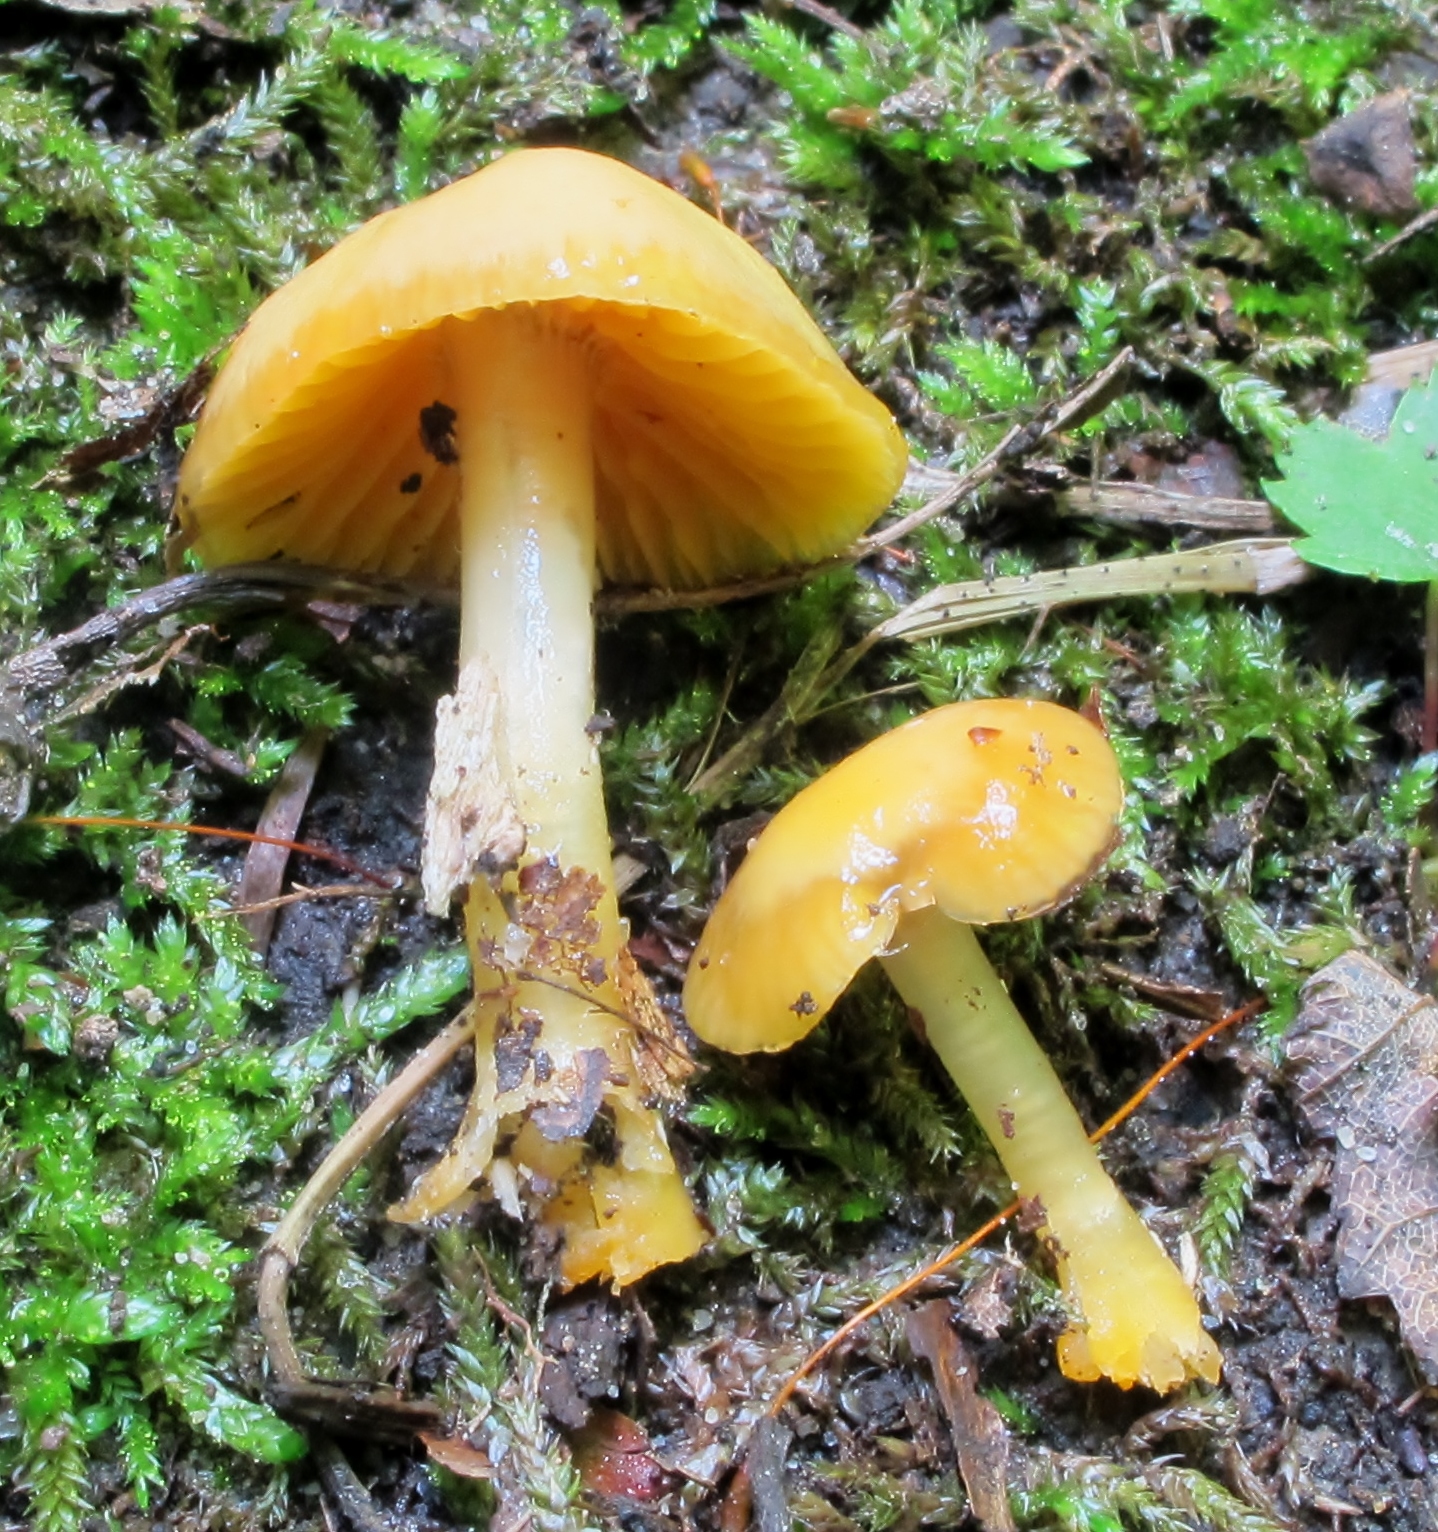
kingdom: Fungi
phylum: Basidiomycota
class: Agaricomycetes
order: Agaricales
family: Hygrophoraceae
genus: Gliophorus
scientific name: Gliophorus psittacinus
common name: Parrot wax-cap
